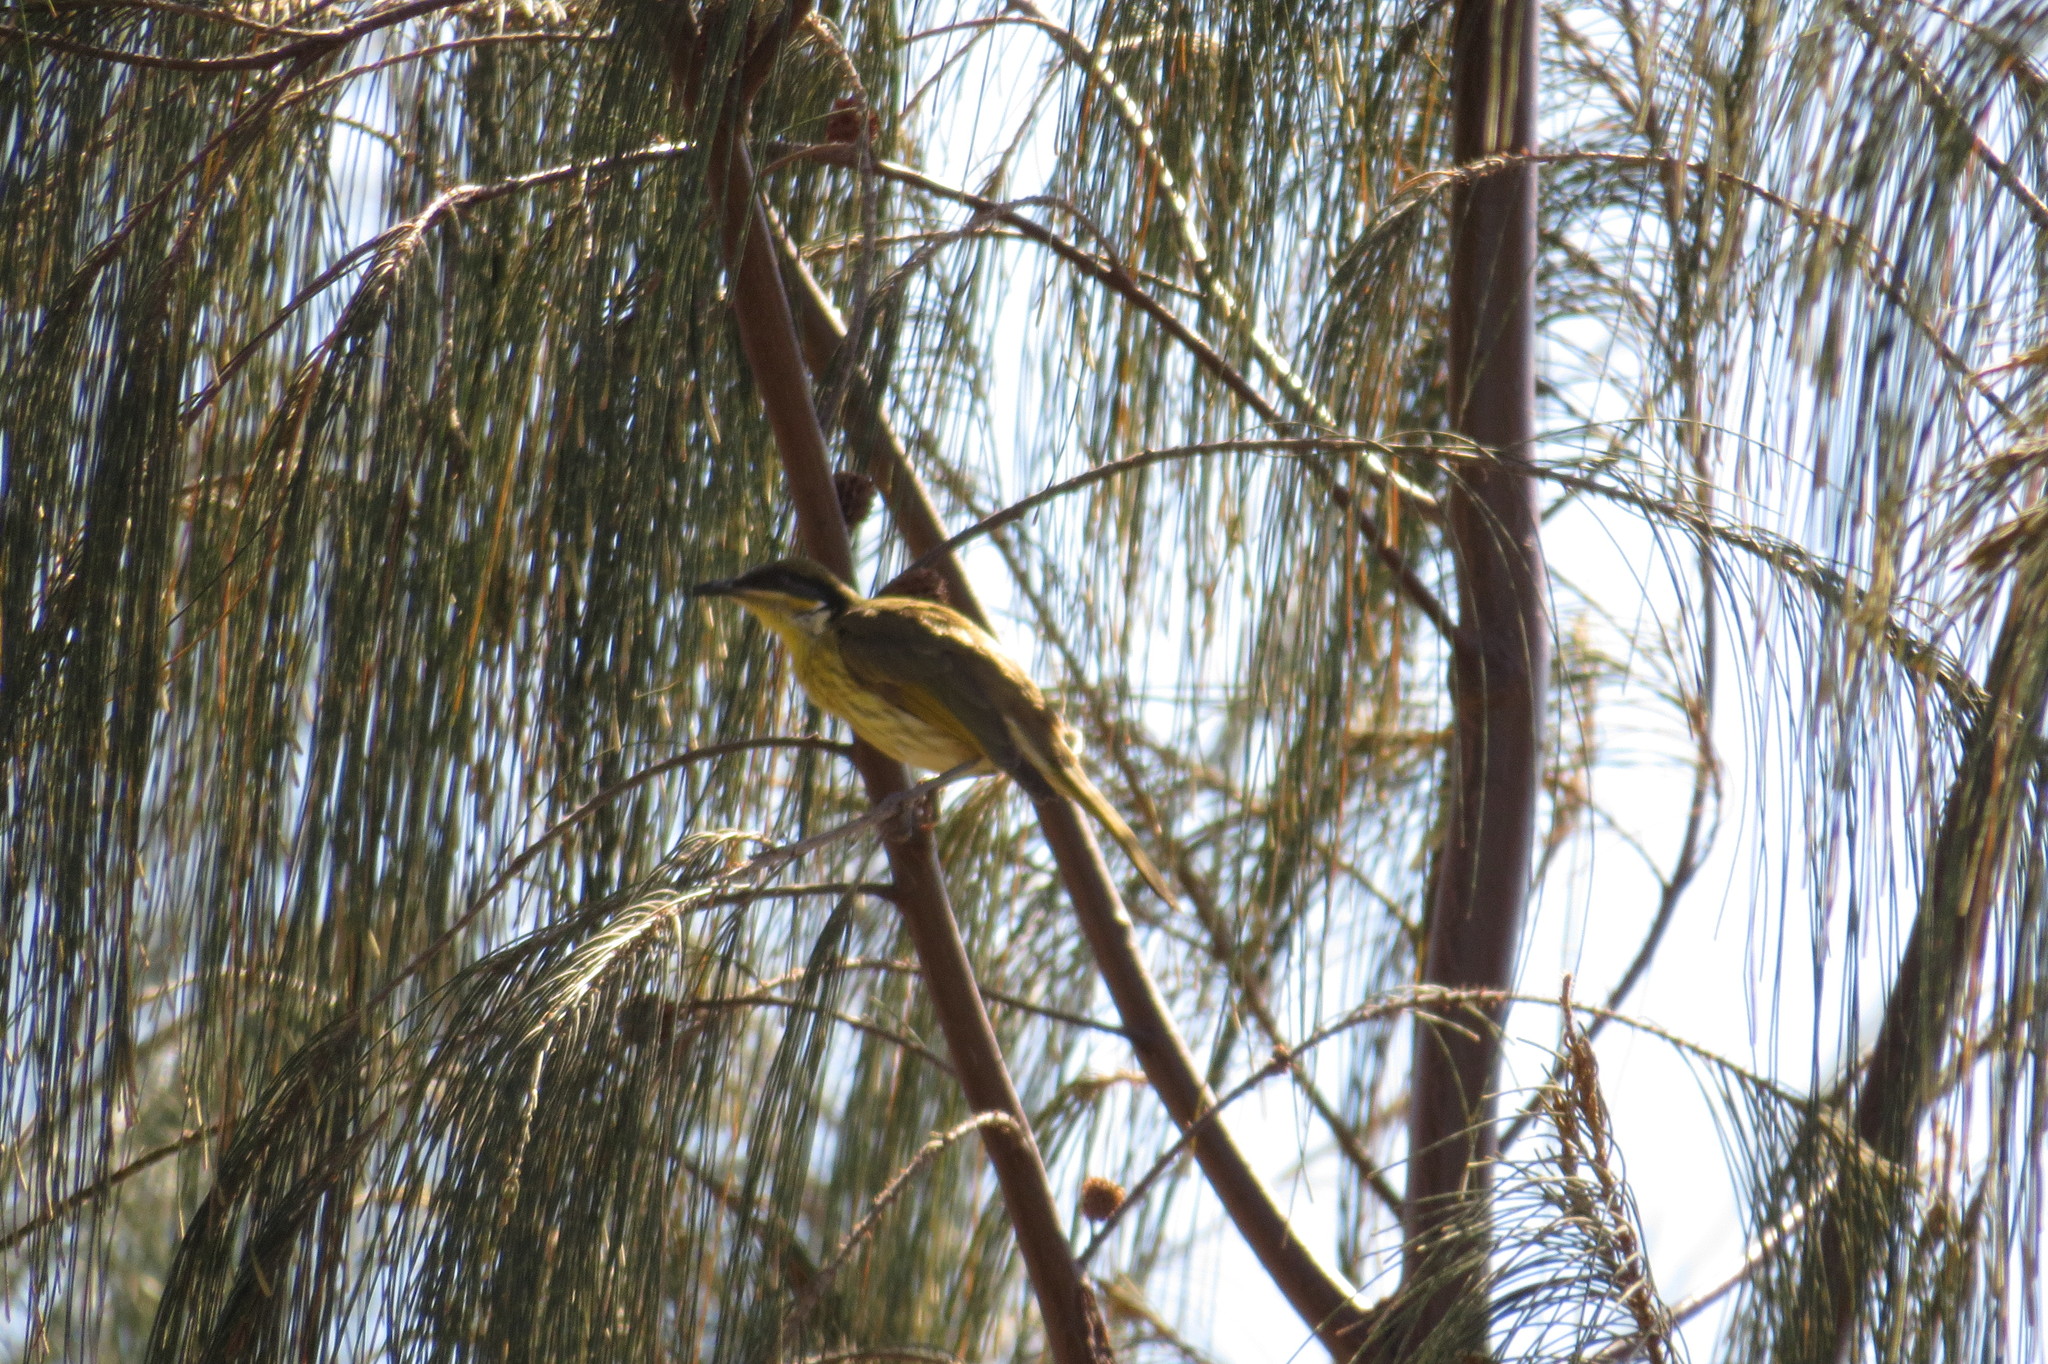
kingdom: Animalia
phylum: Chordata
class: Aves
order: Passeriformes
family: Meliphagidae
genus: Gavicalis
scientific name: Gavicalis versicolor
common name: Varied honeyeater
